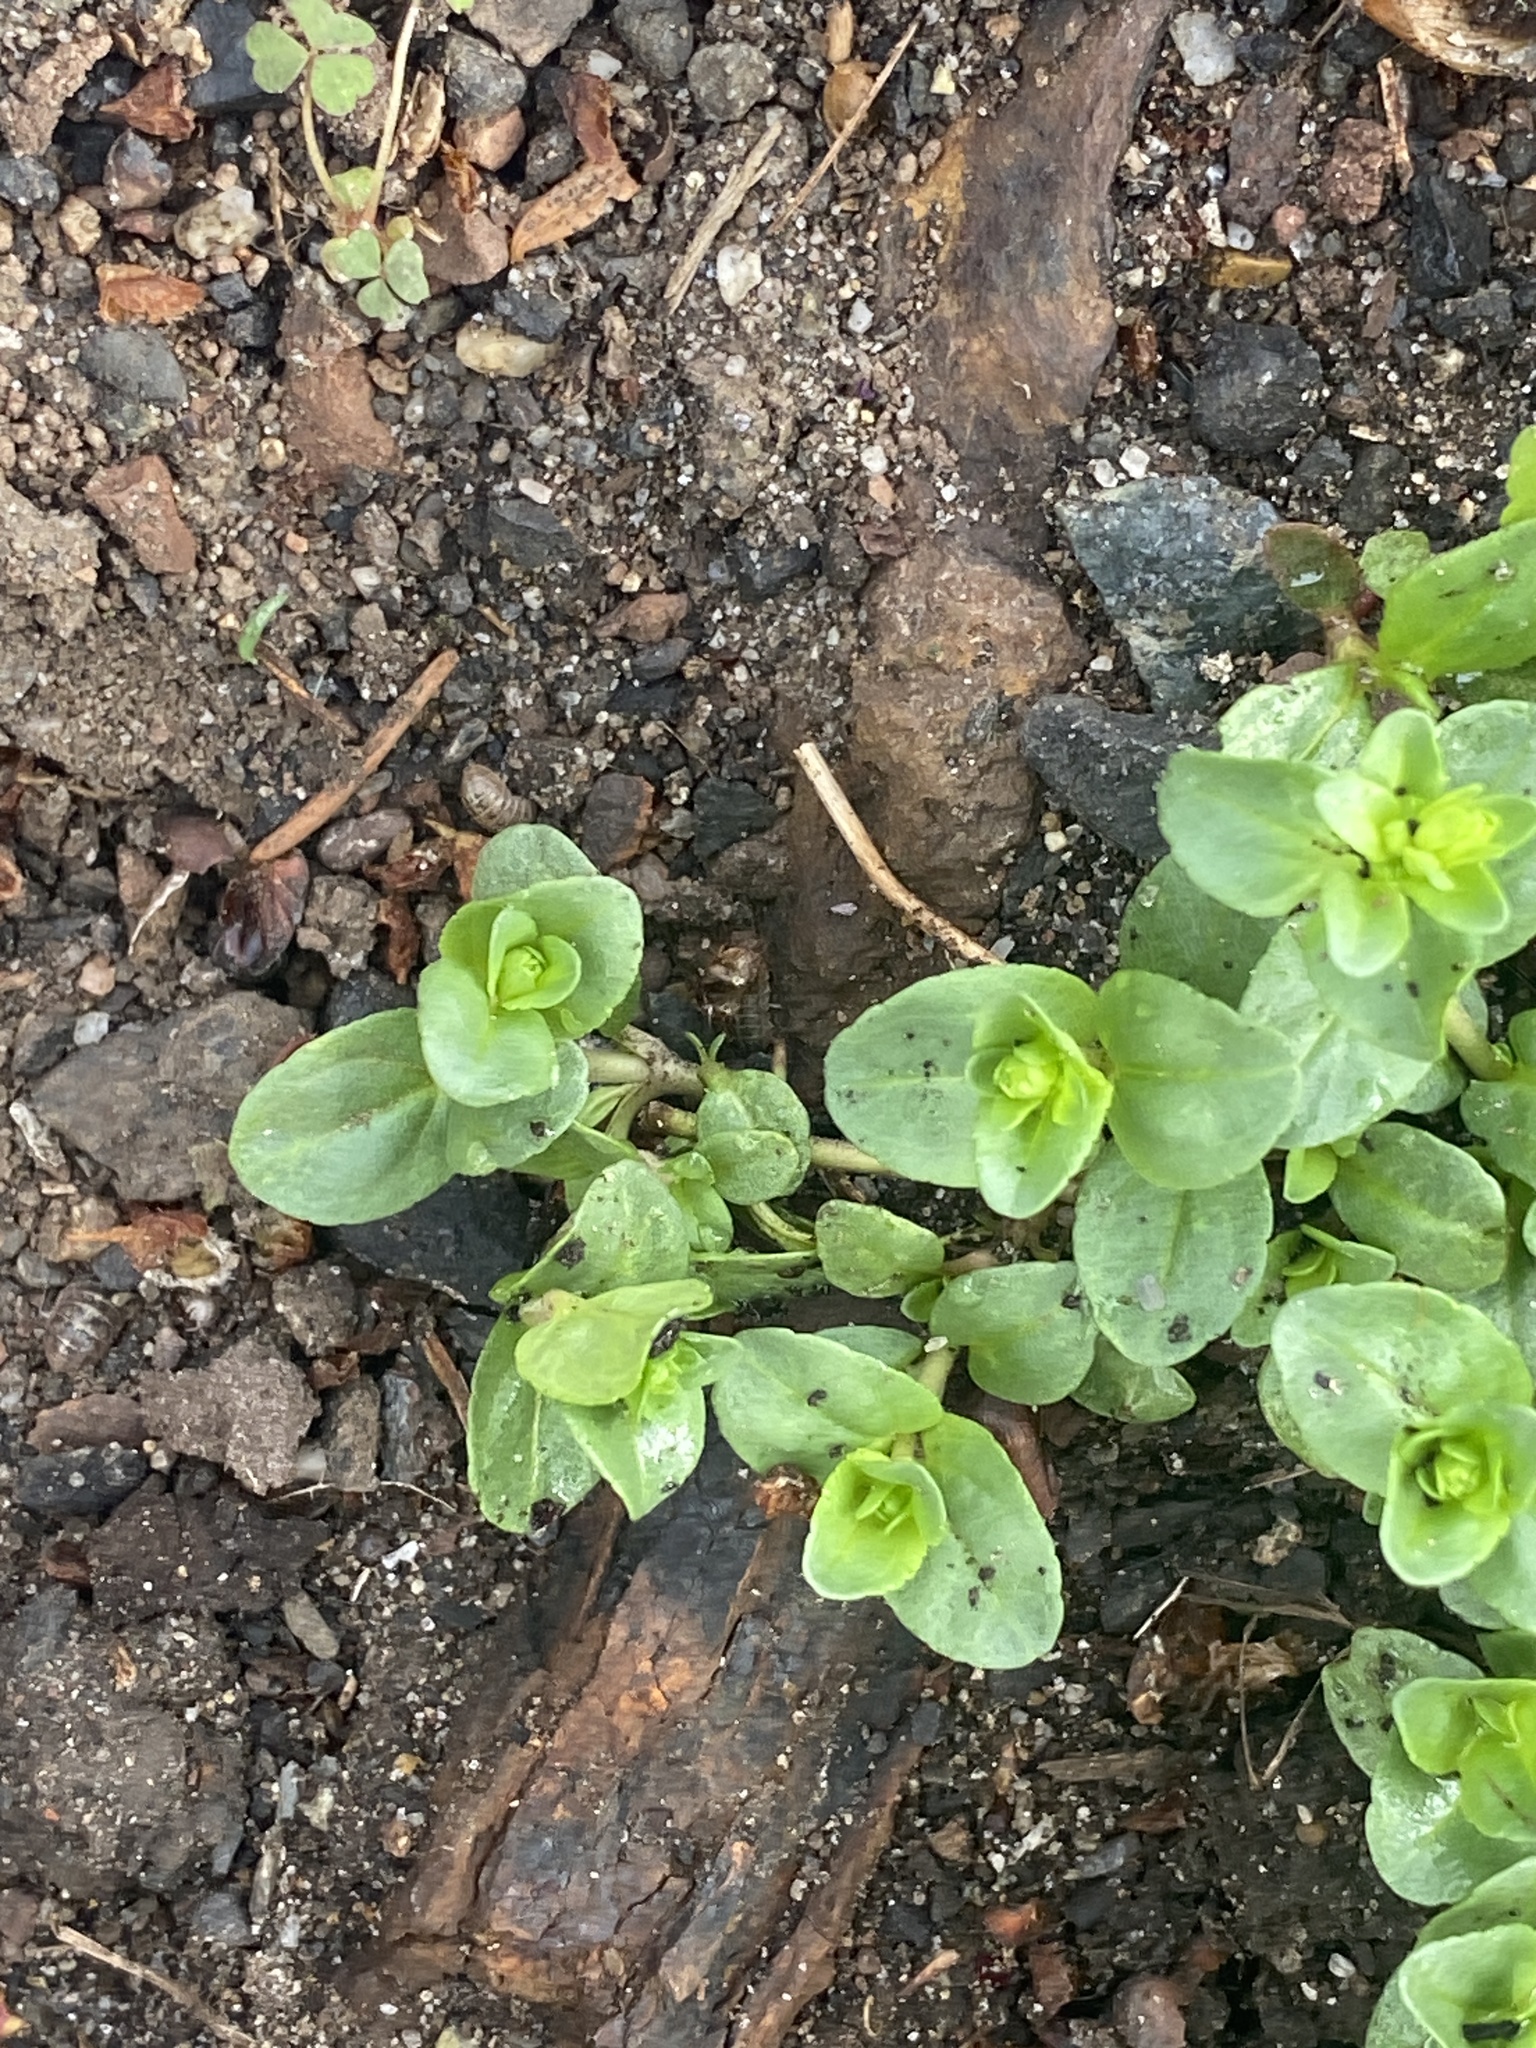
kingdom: Plantae
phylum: Tracheophyta
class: Magnoliopsida
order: Lamiales
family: Plantaginaceae
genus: Veronica
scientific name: Veronica serpyllifolia
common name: Thyme-leaved speedwell
